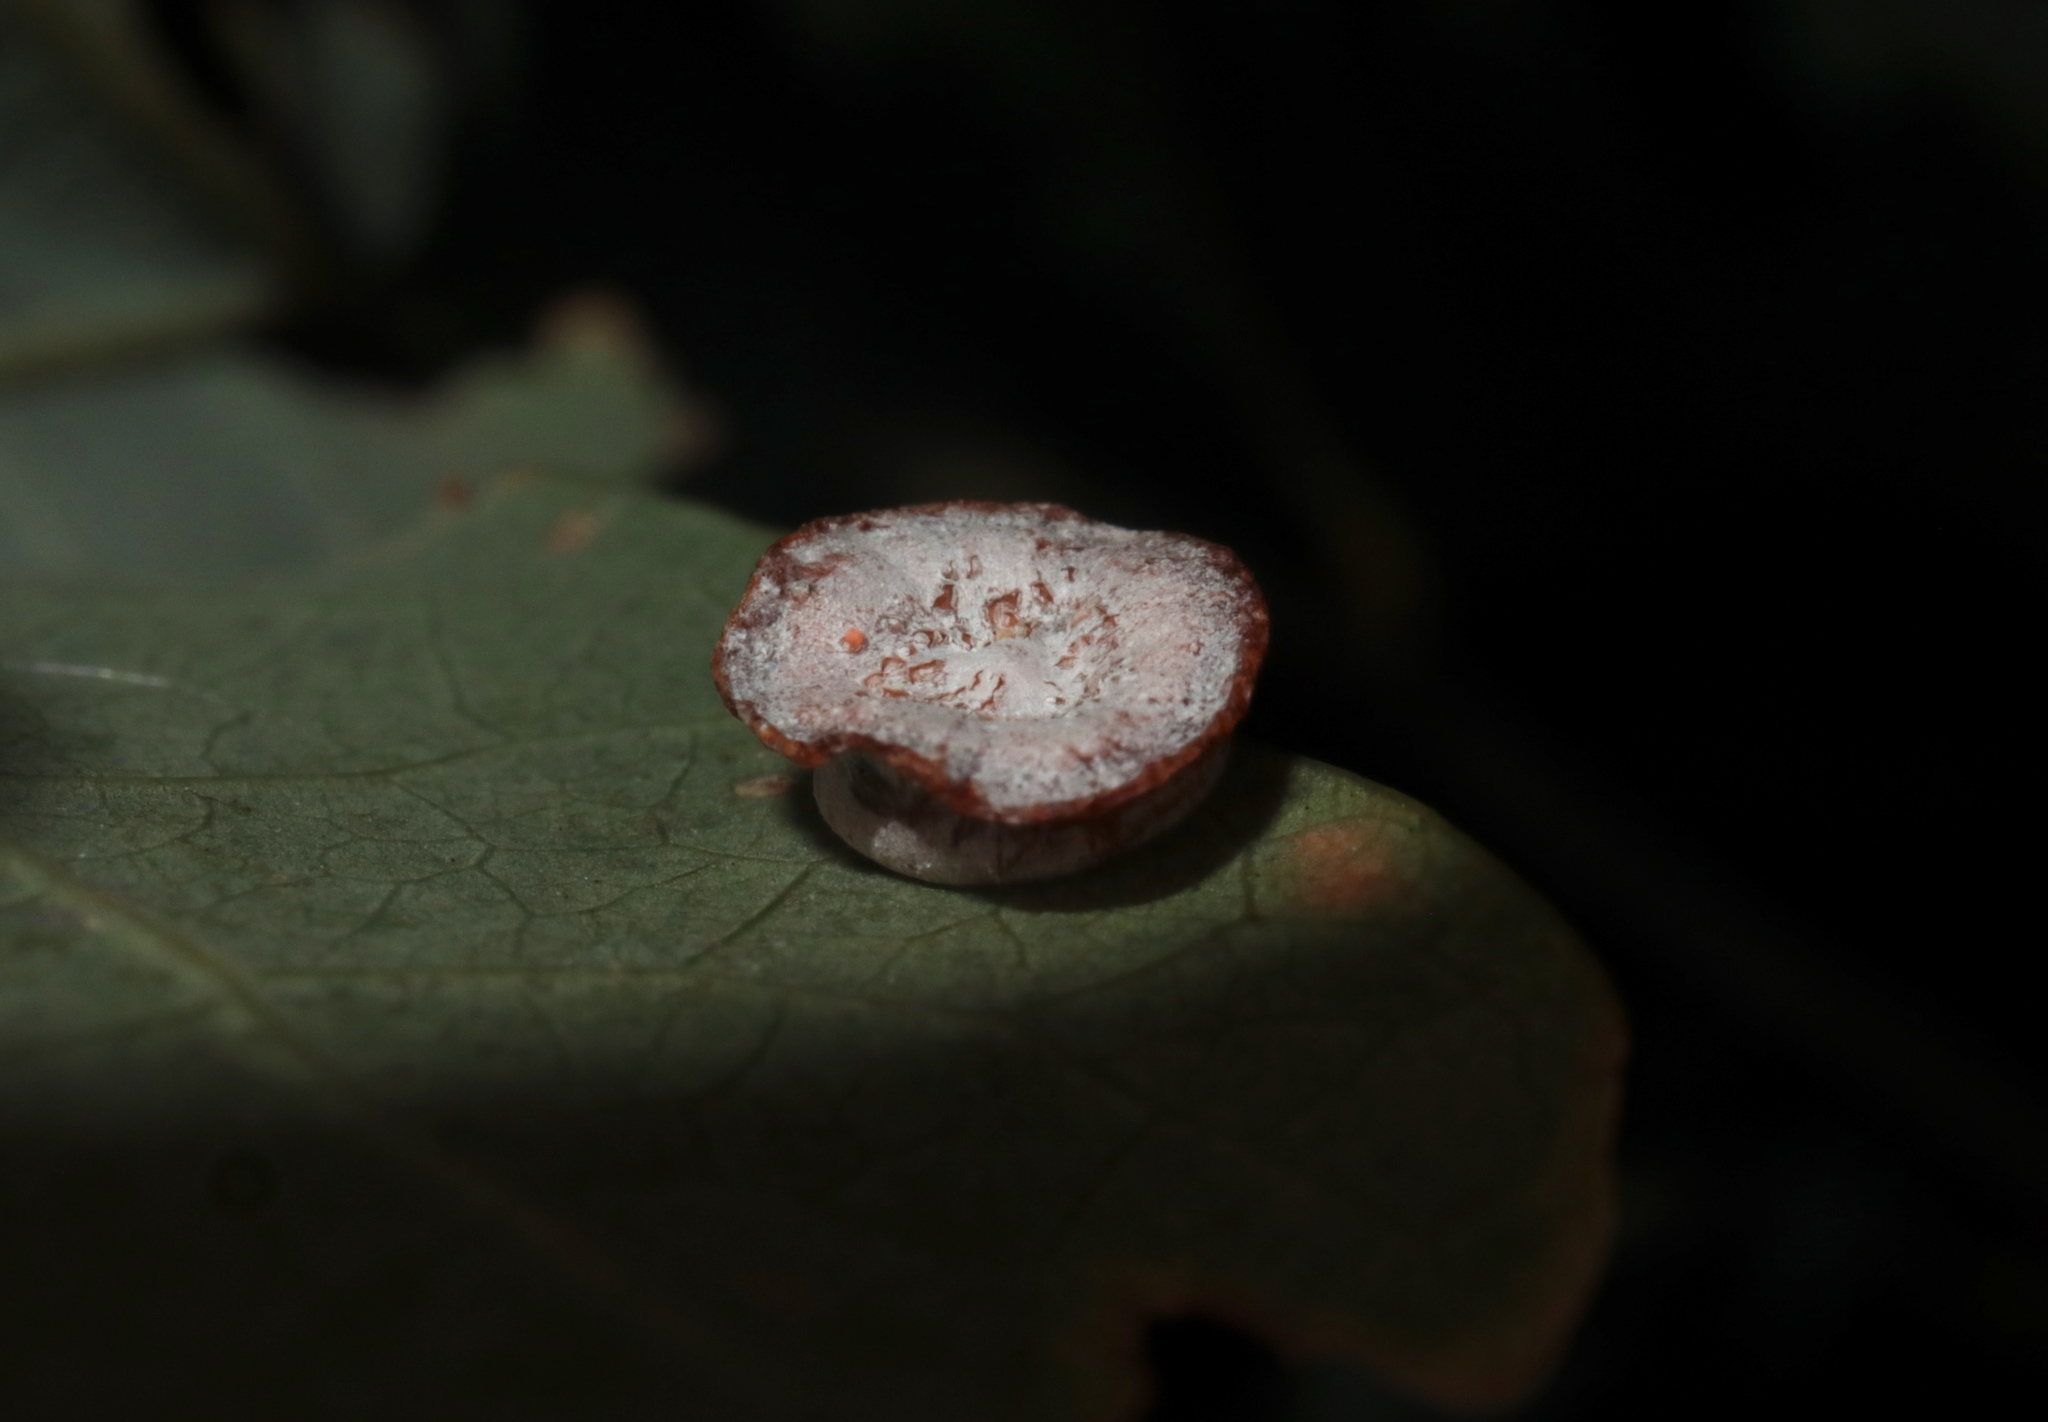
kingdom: Animalia
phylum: Arthropoda
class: Insecta
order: Hymenoptera
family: Cynipidae
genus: Phylloteras
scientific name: Phylloteras poculum
